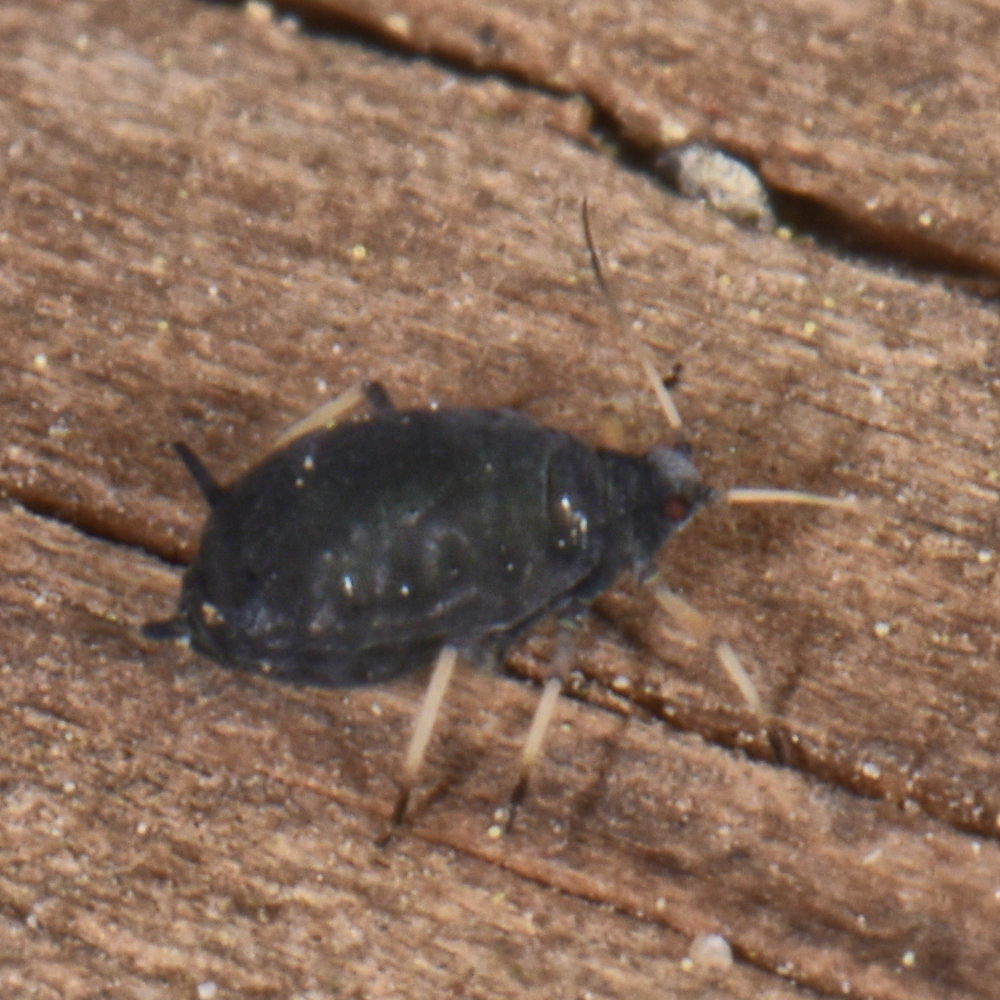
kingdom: Animalia
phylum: Arthropoda
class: Insecta
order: Hemiptera
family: Aphididae
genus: Aphis
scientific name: Aphis fabae
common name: Bean aphid
